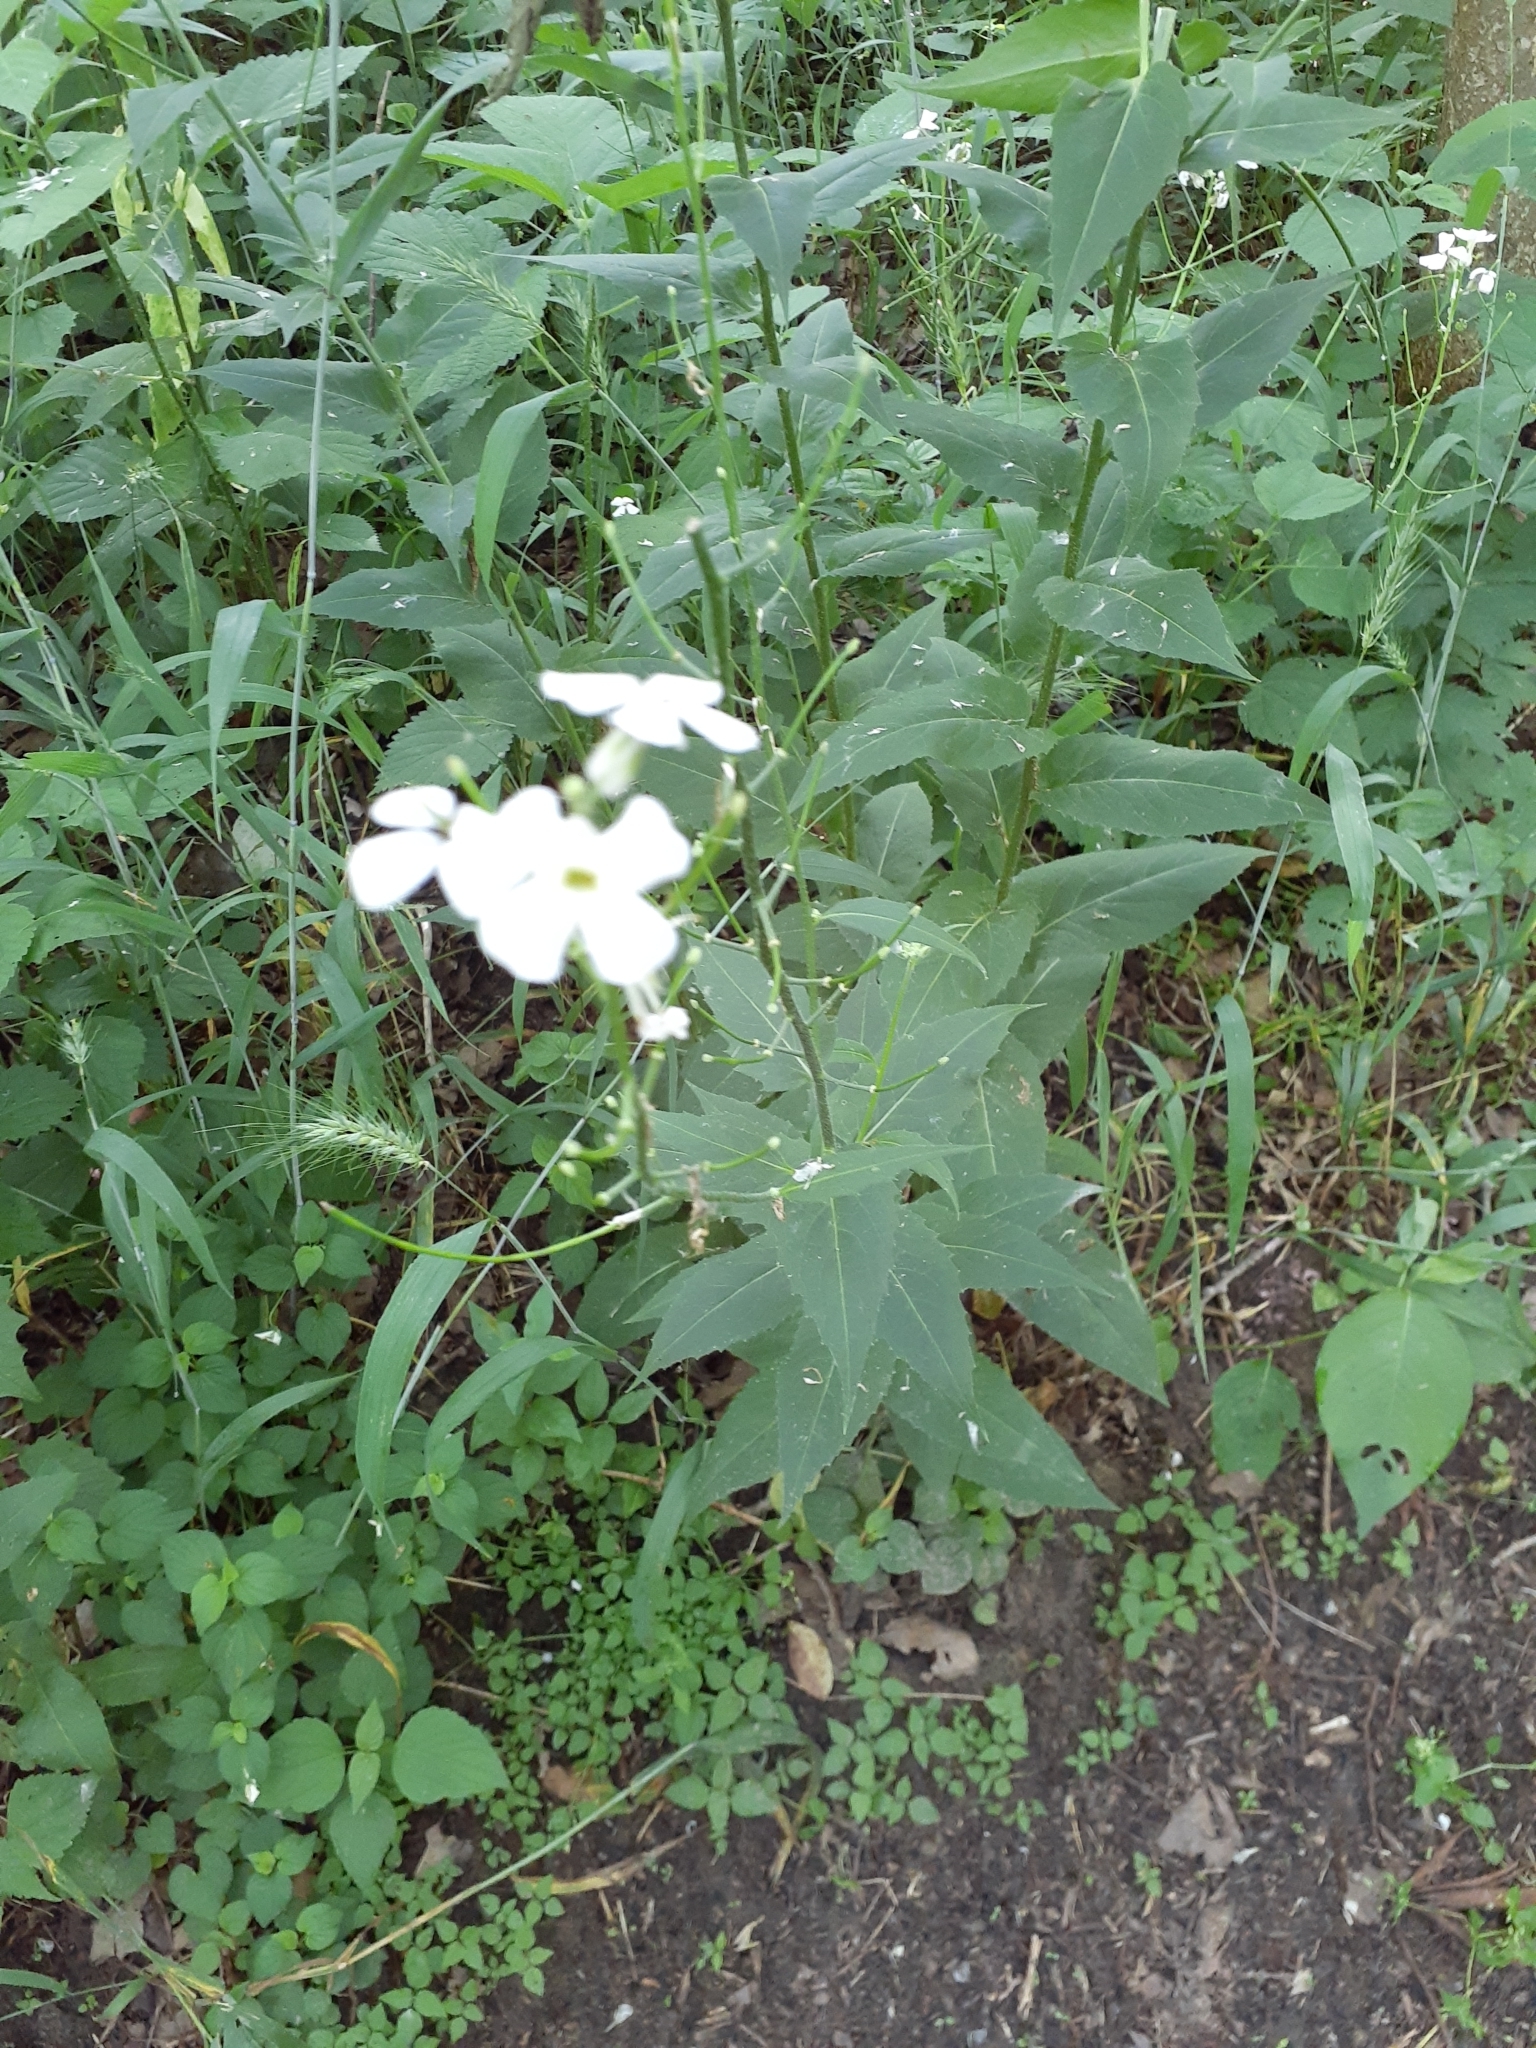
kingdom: Plantae
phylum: Tracheophyta
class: Magnoliopsida
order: Brassicales
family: Brassicaceae
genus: Hesperis
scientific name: Hesperis matronalis
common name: Dame's-violet
